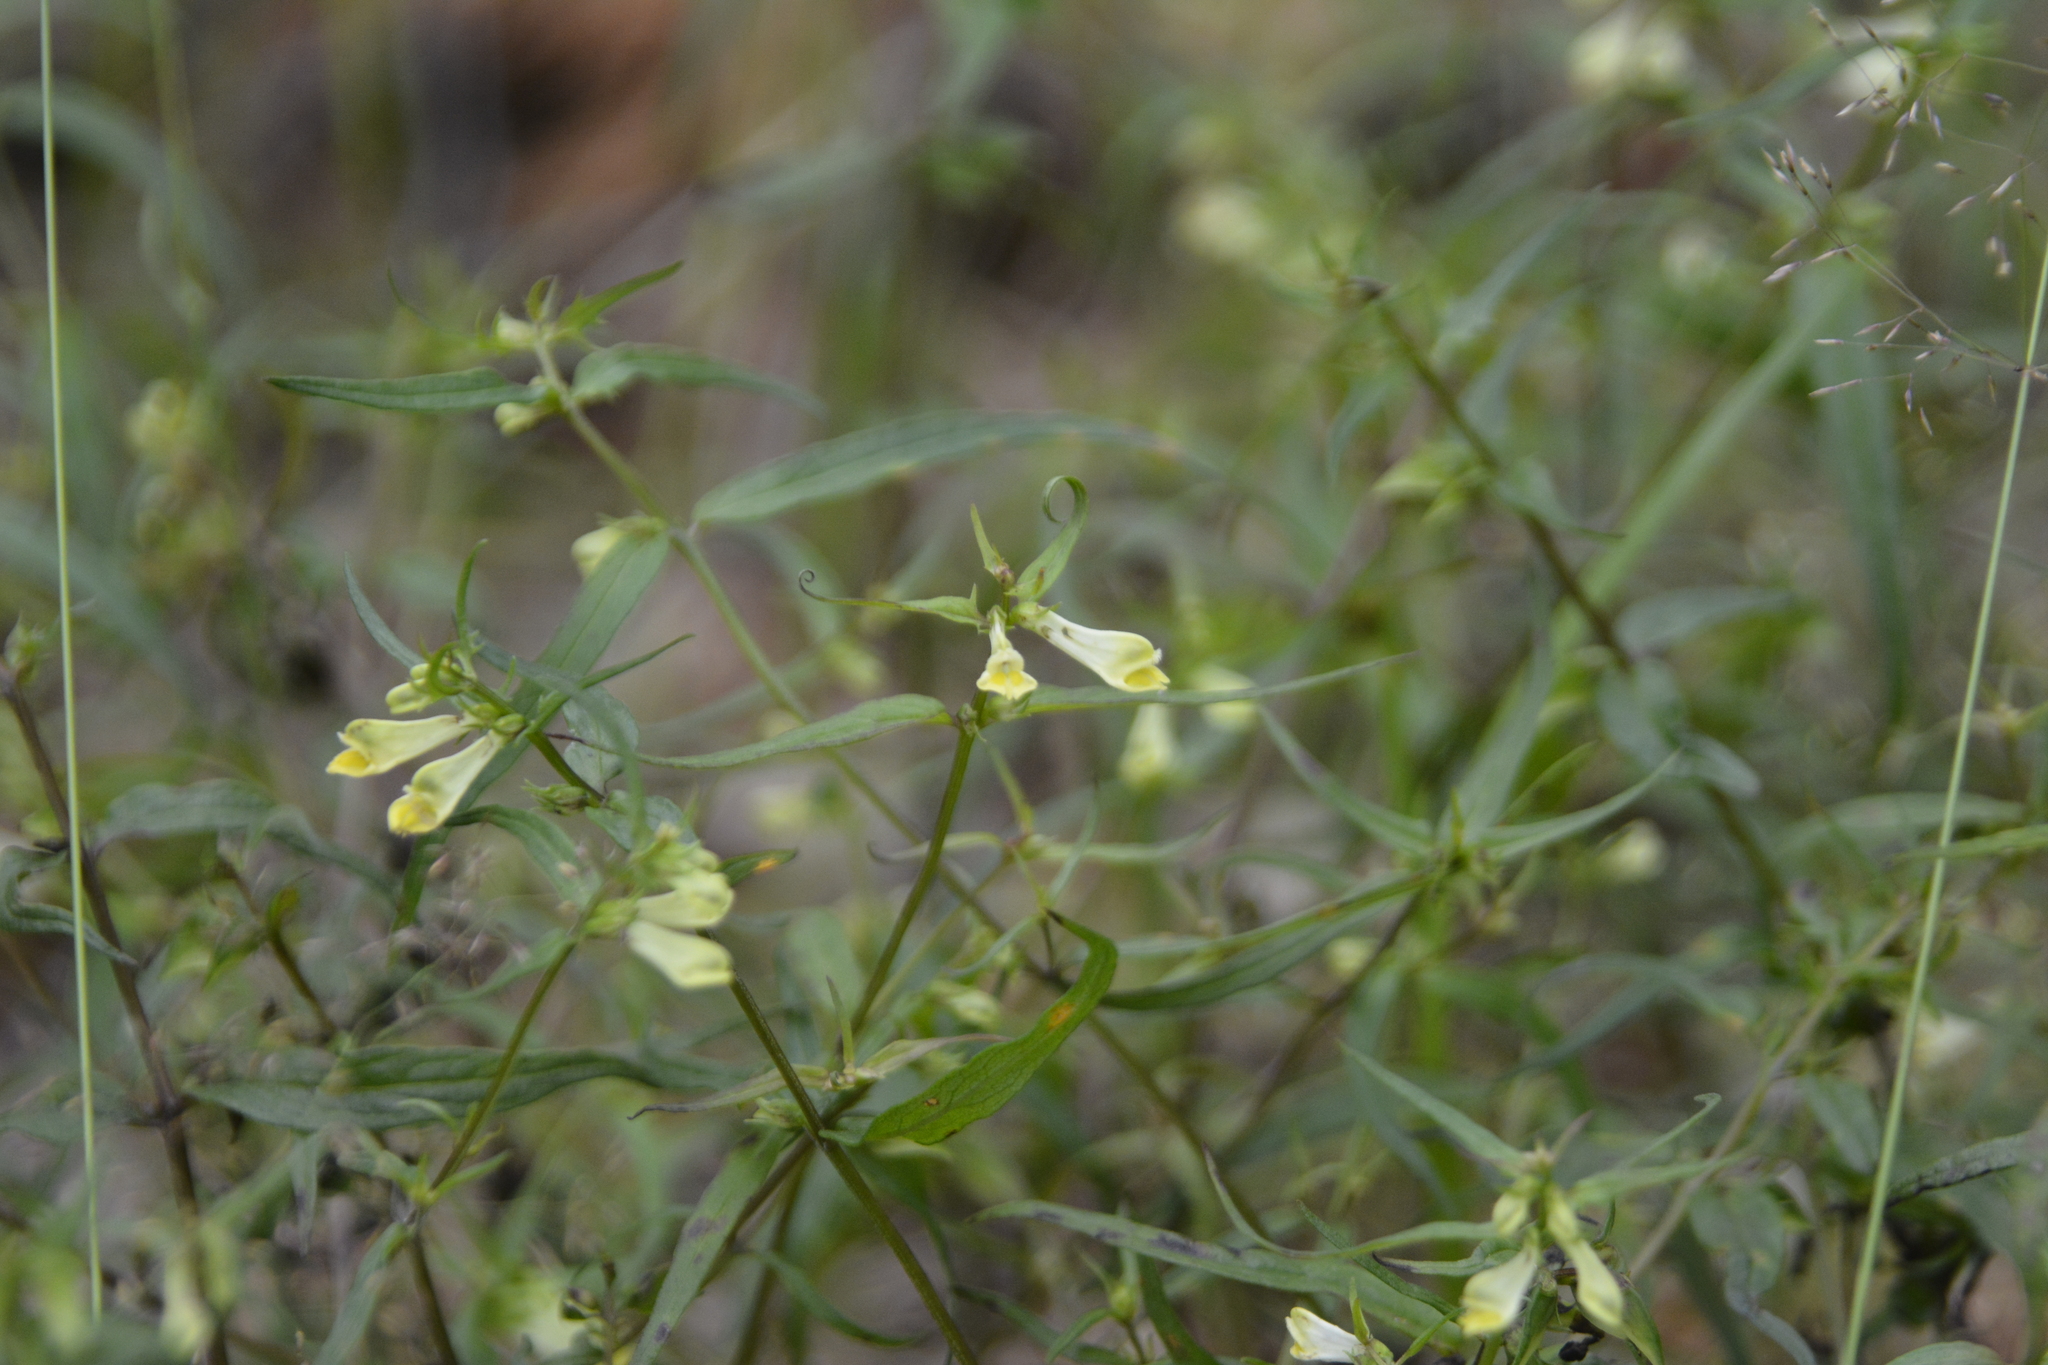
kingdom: Plantae
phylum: Tracheophyta
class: Magnoliopsida
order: Lamiales
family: Orobanchaceae
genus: Melampyrum
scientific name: Melampyrum pratense
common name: Common cow-wheat
